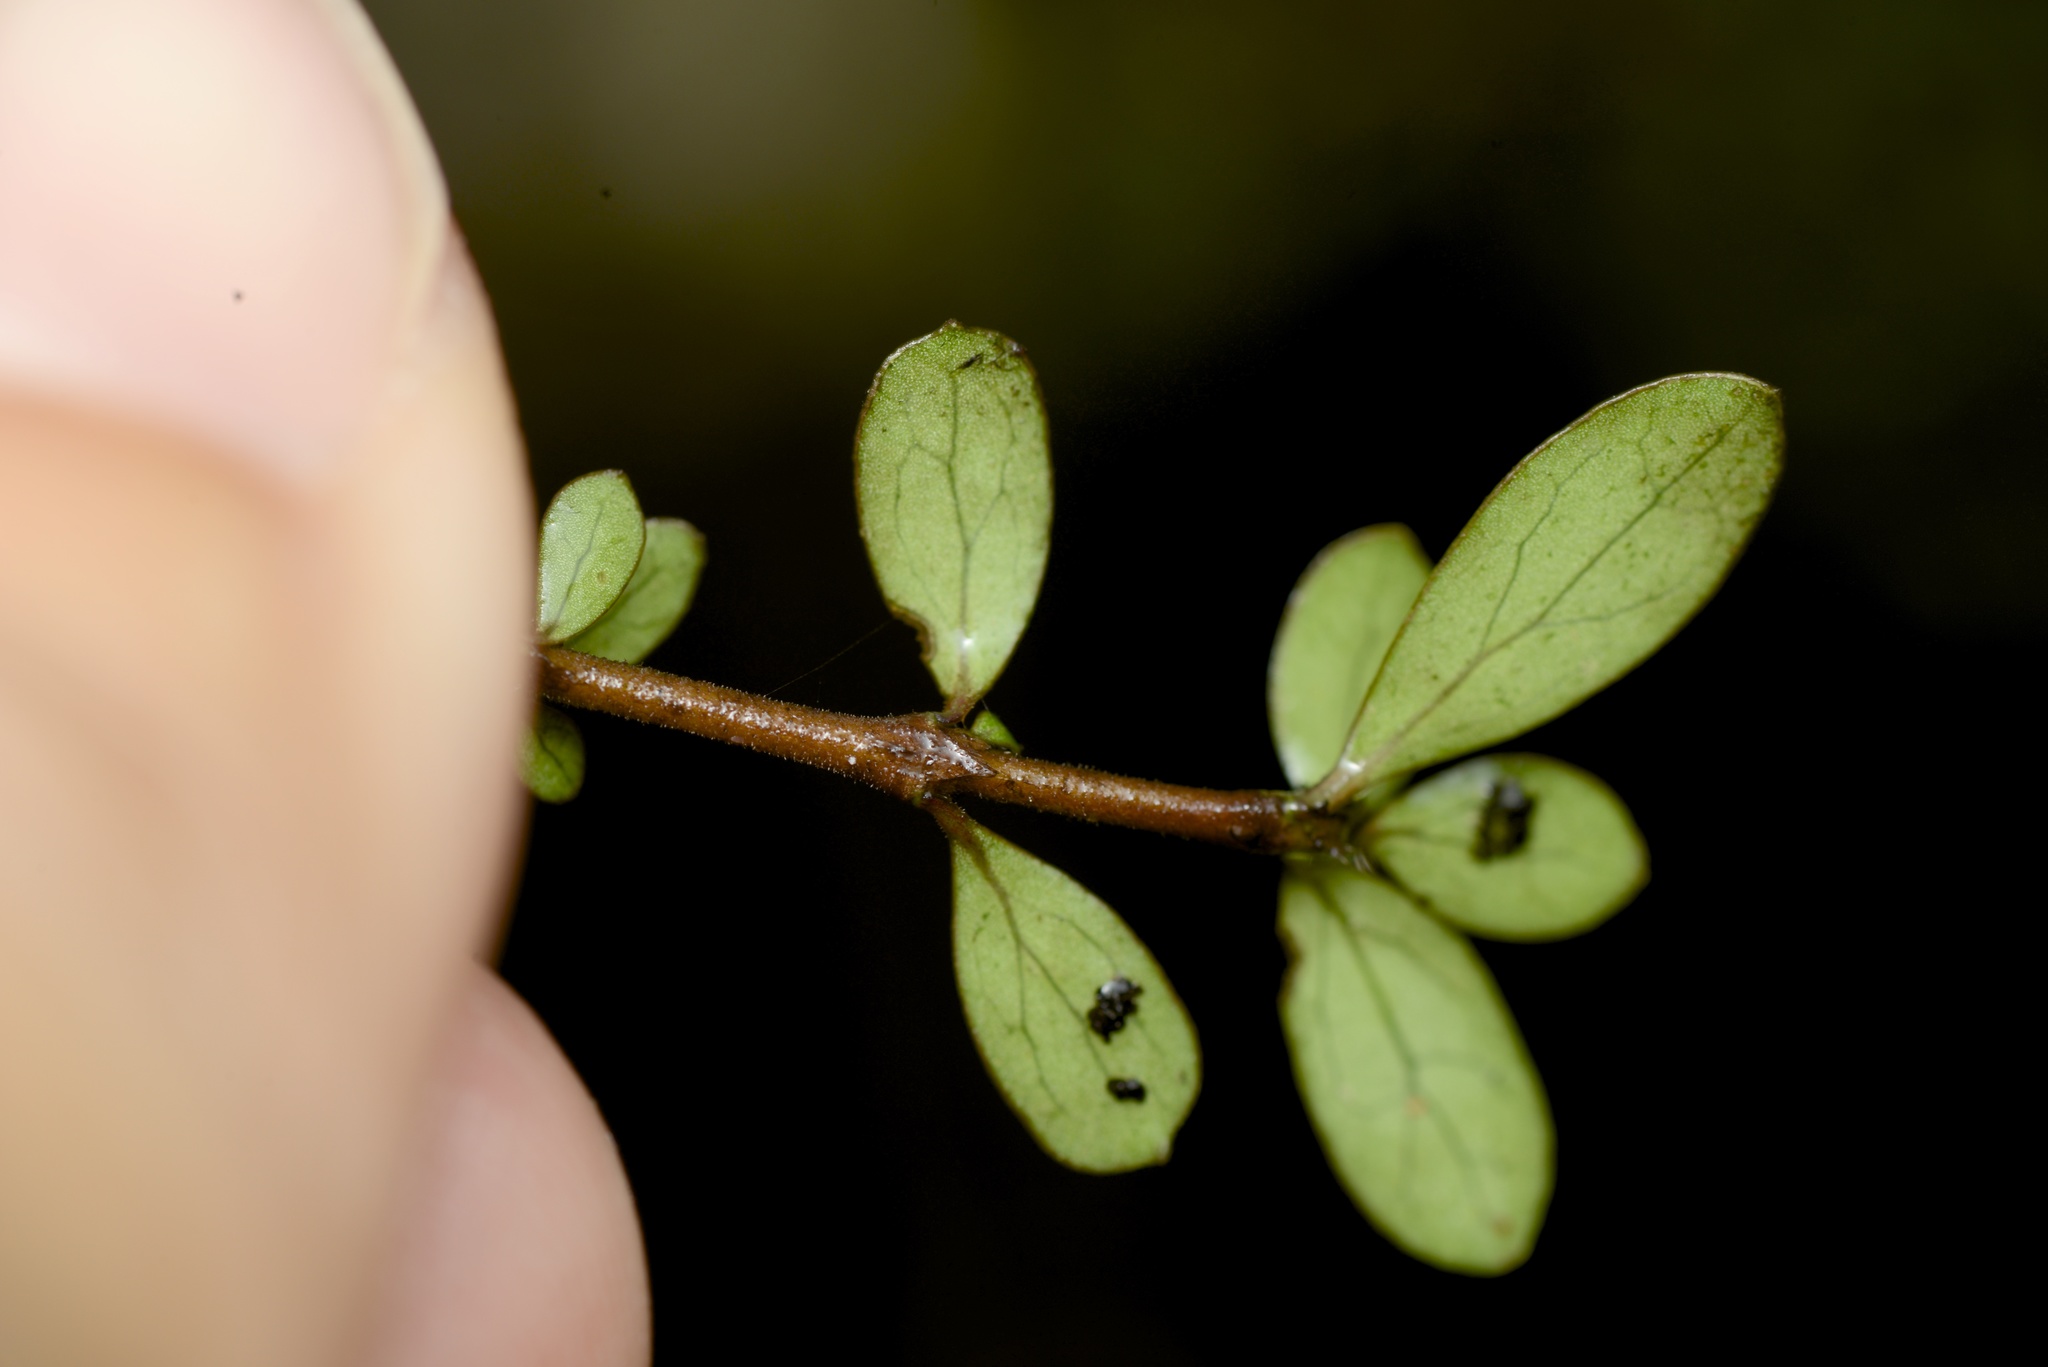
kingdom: Plantae
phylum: Tracheophyta
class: Magnoliopsida
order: Gentianales
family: Rubiaceae
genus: Coprosma
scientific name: Coprosma rigida
